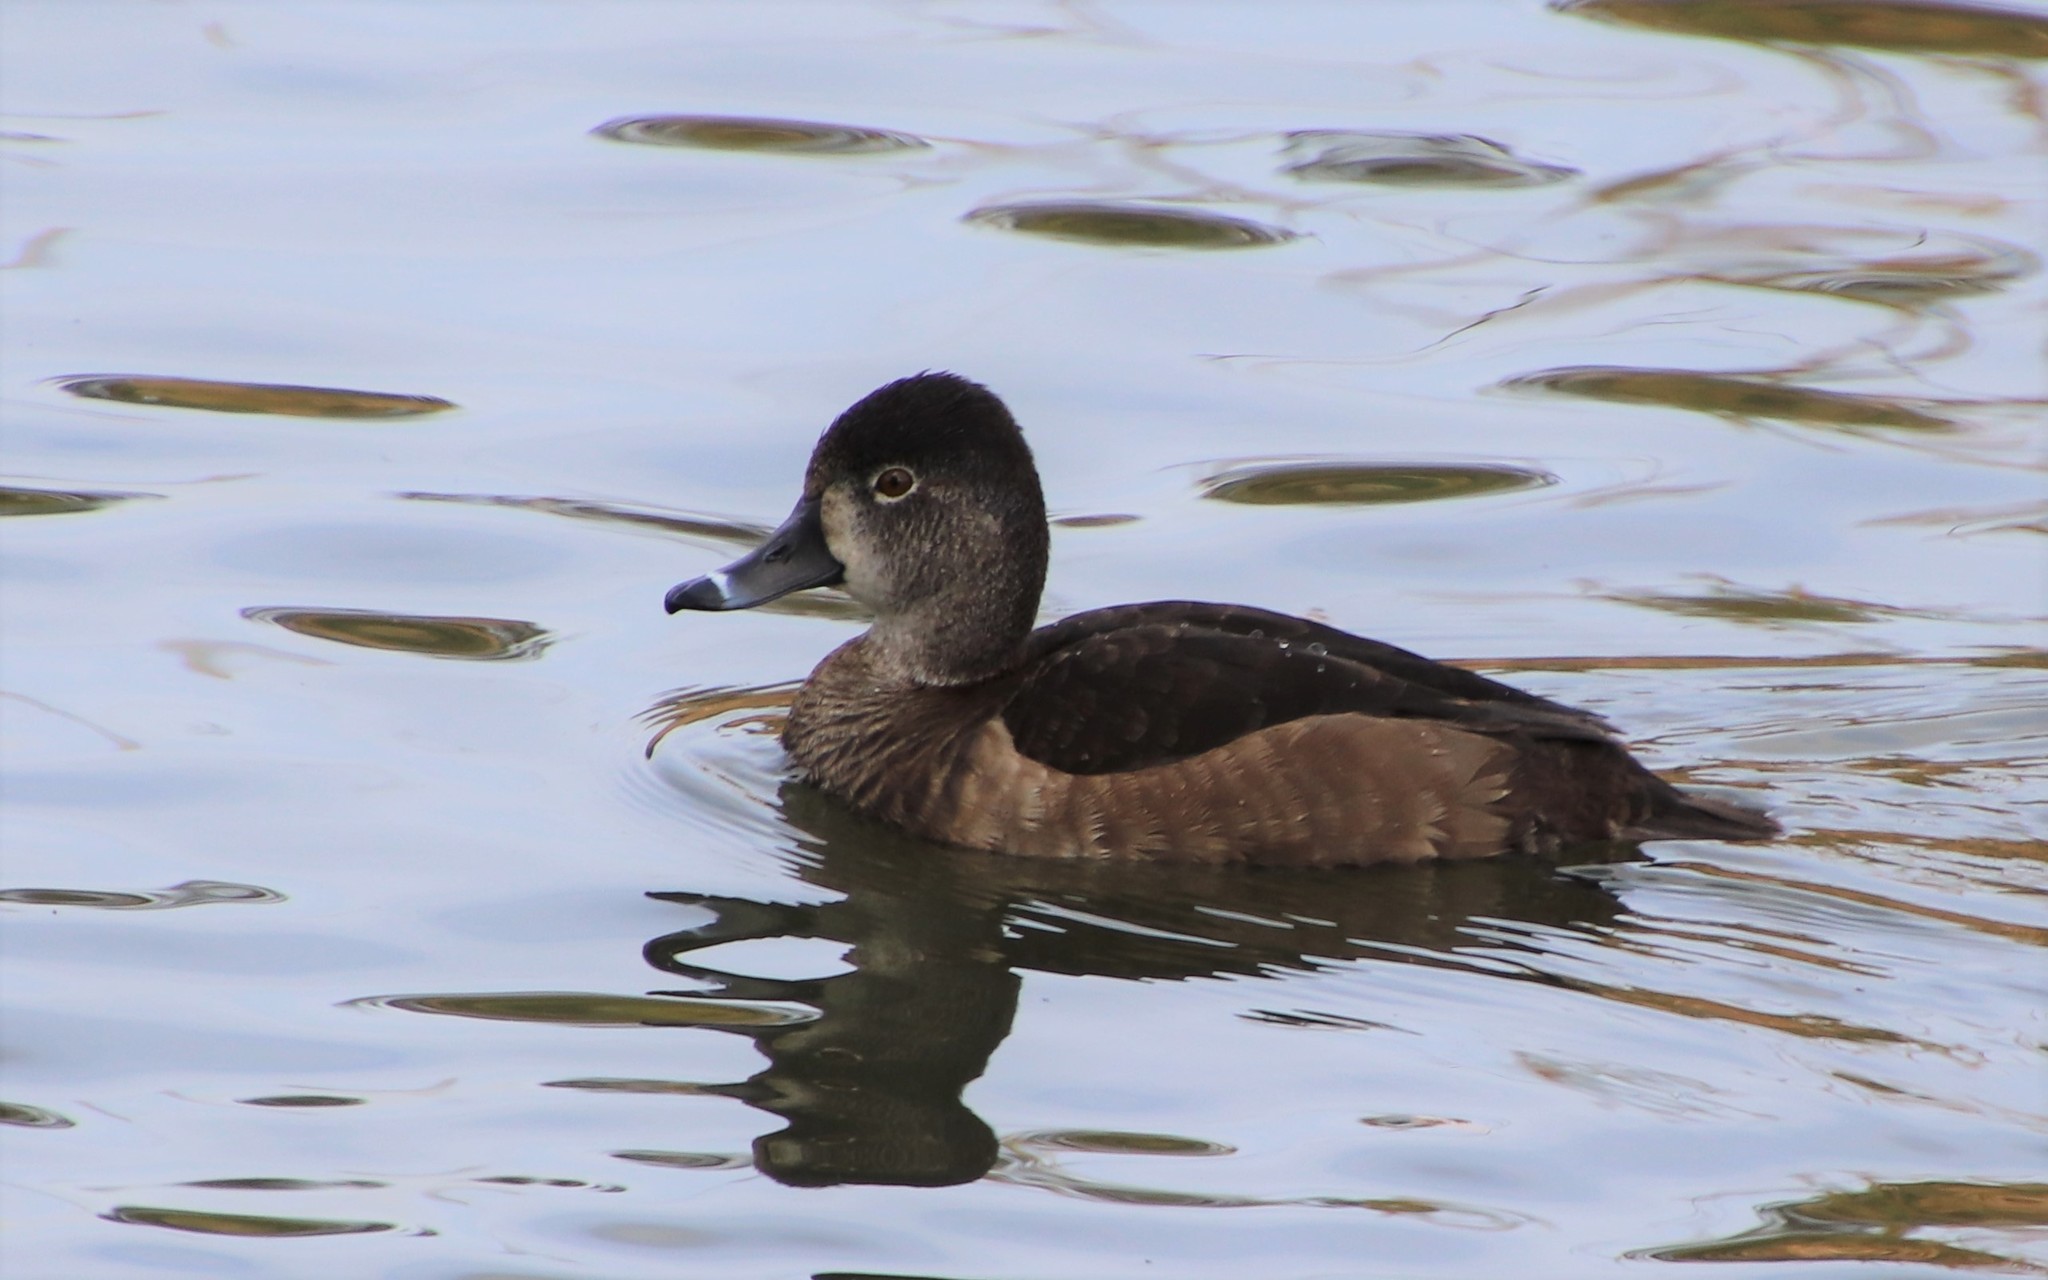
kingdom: Animalia
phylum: Chordata
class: Aves
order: Anseriformes
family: Anatidae
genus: Aythya
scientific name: Aythya collaris
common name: Ring-necked duck
